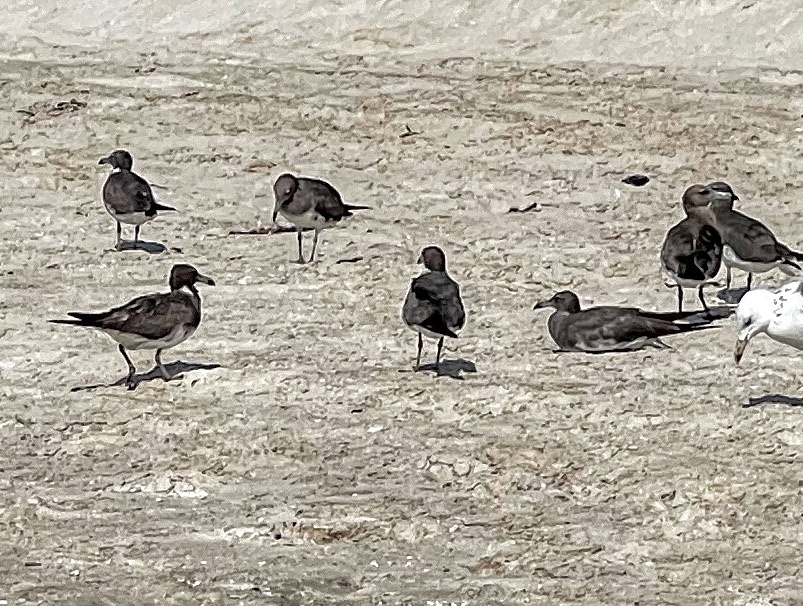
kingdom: Animalia
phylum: Chordata
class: Aves
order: Charadriiformes
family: Laridae
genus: Ichthyaetus
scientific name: Ichthyaetus hemprichii
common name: Sooty gull
